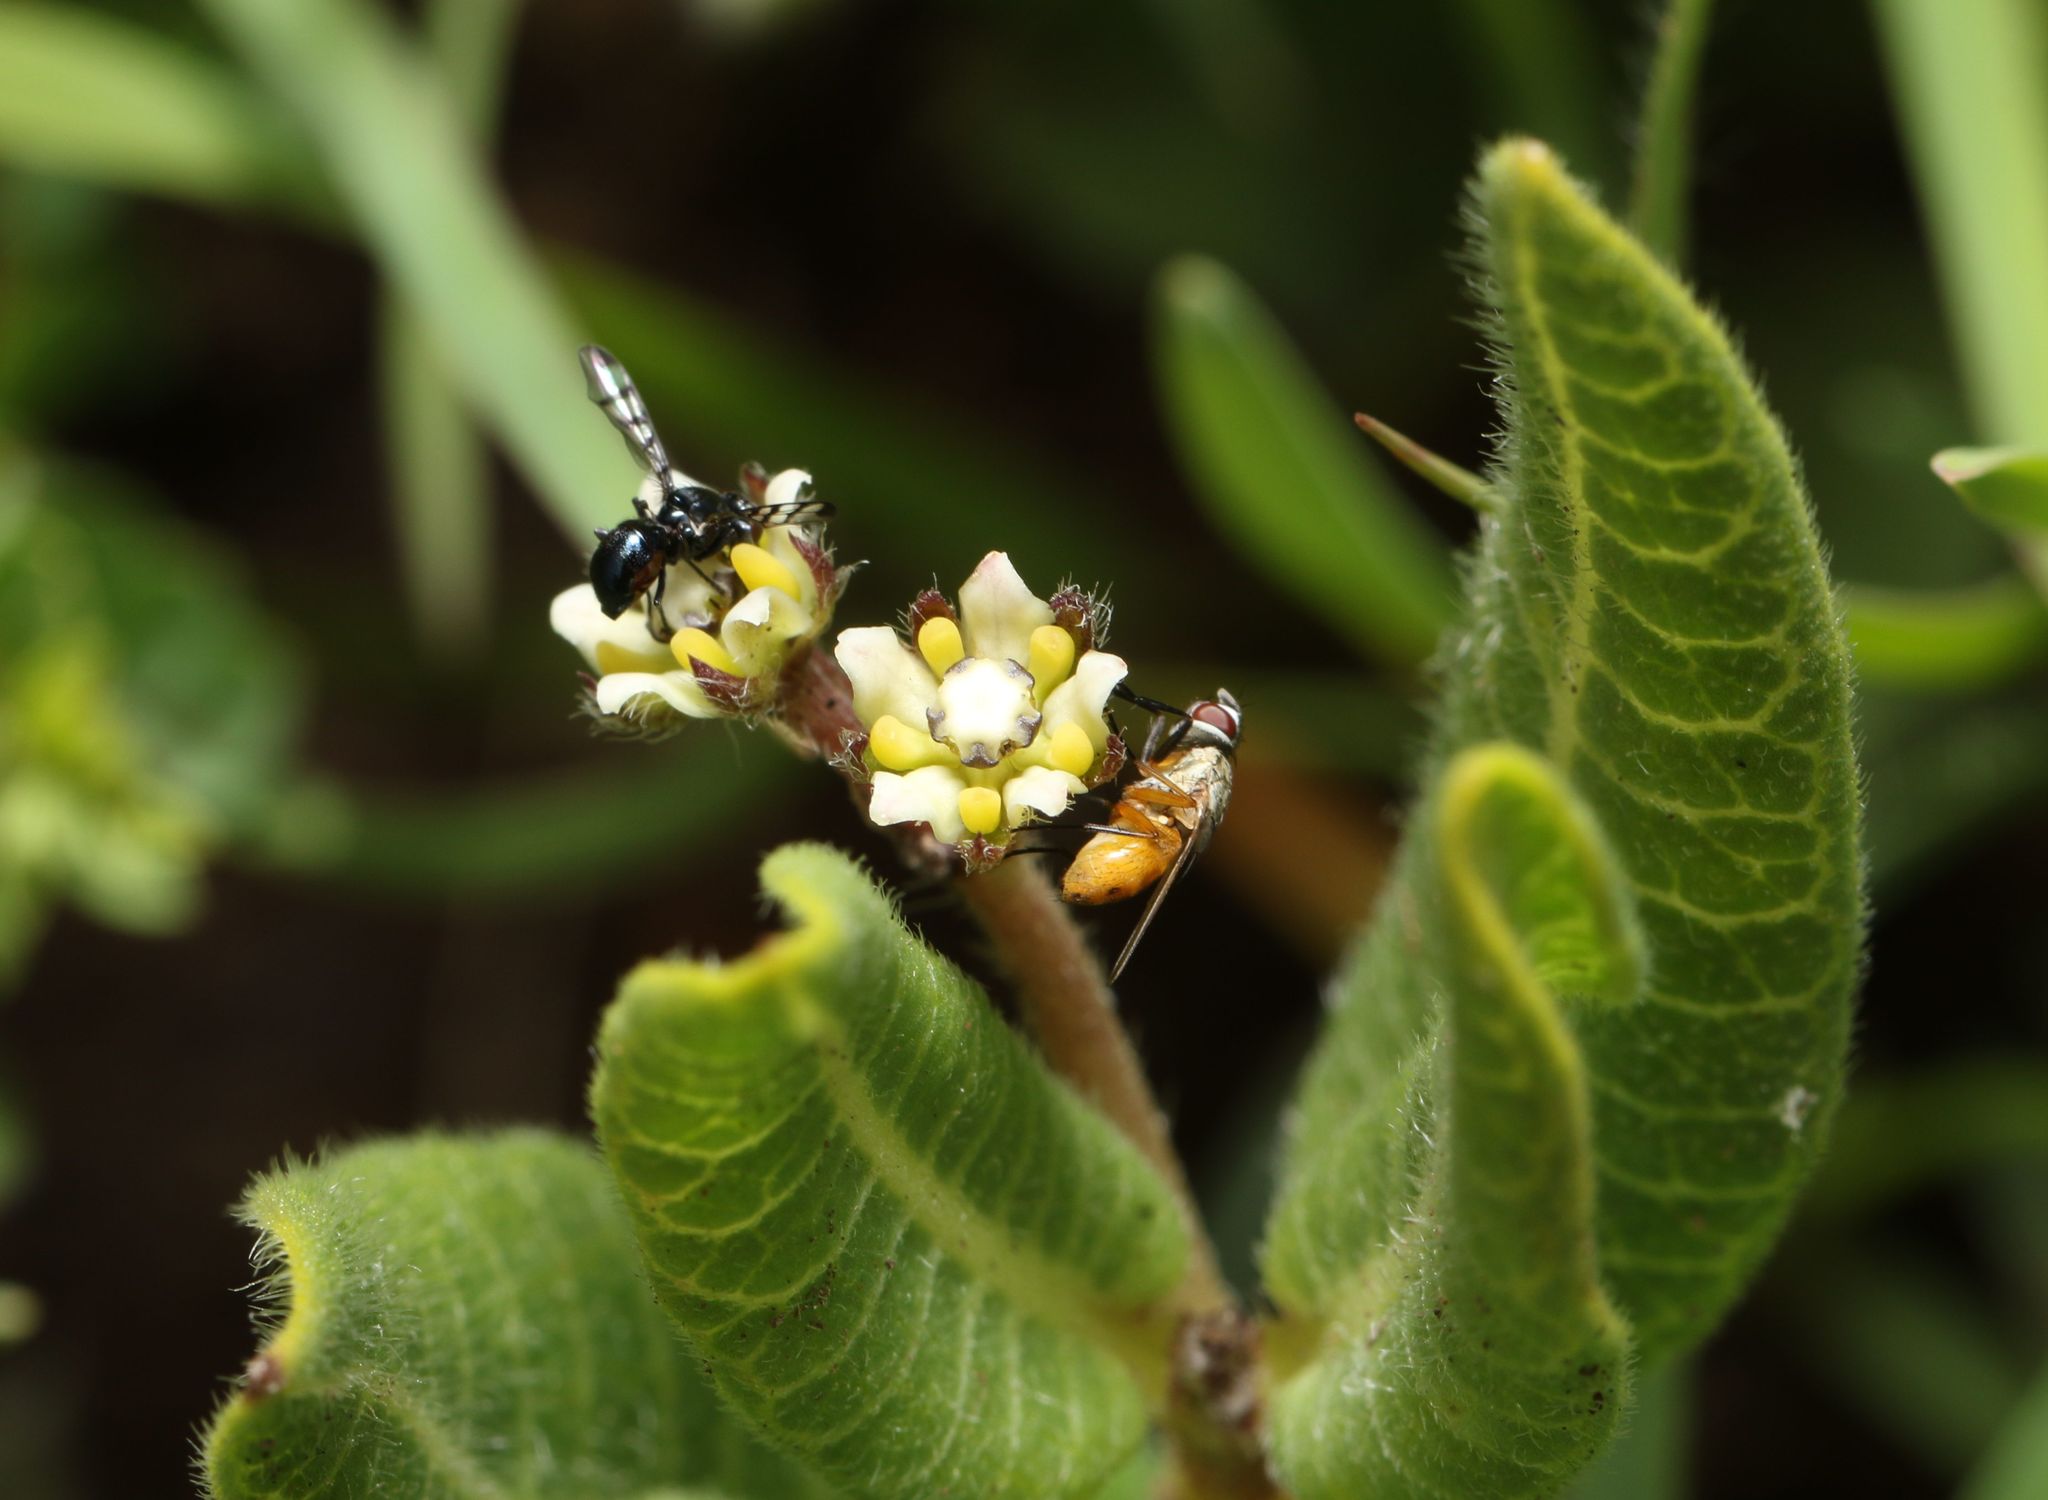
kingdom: Plantae
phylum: Tracheophyta
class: Magnoliopsida
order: Gentianales
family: Apocynaceae
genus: Xysmalobium
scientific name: Xysmalobium parviflorum
